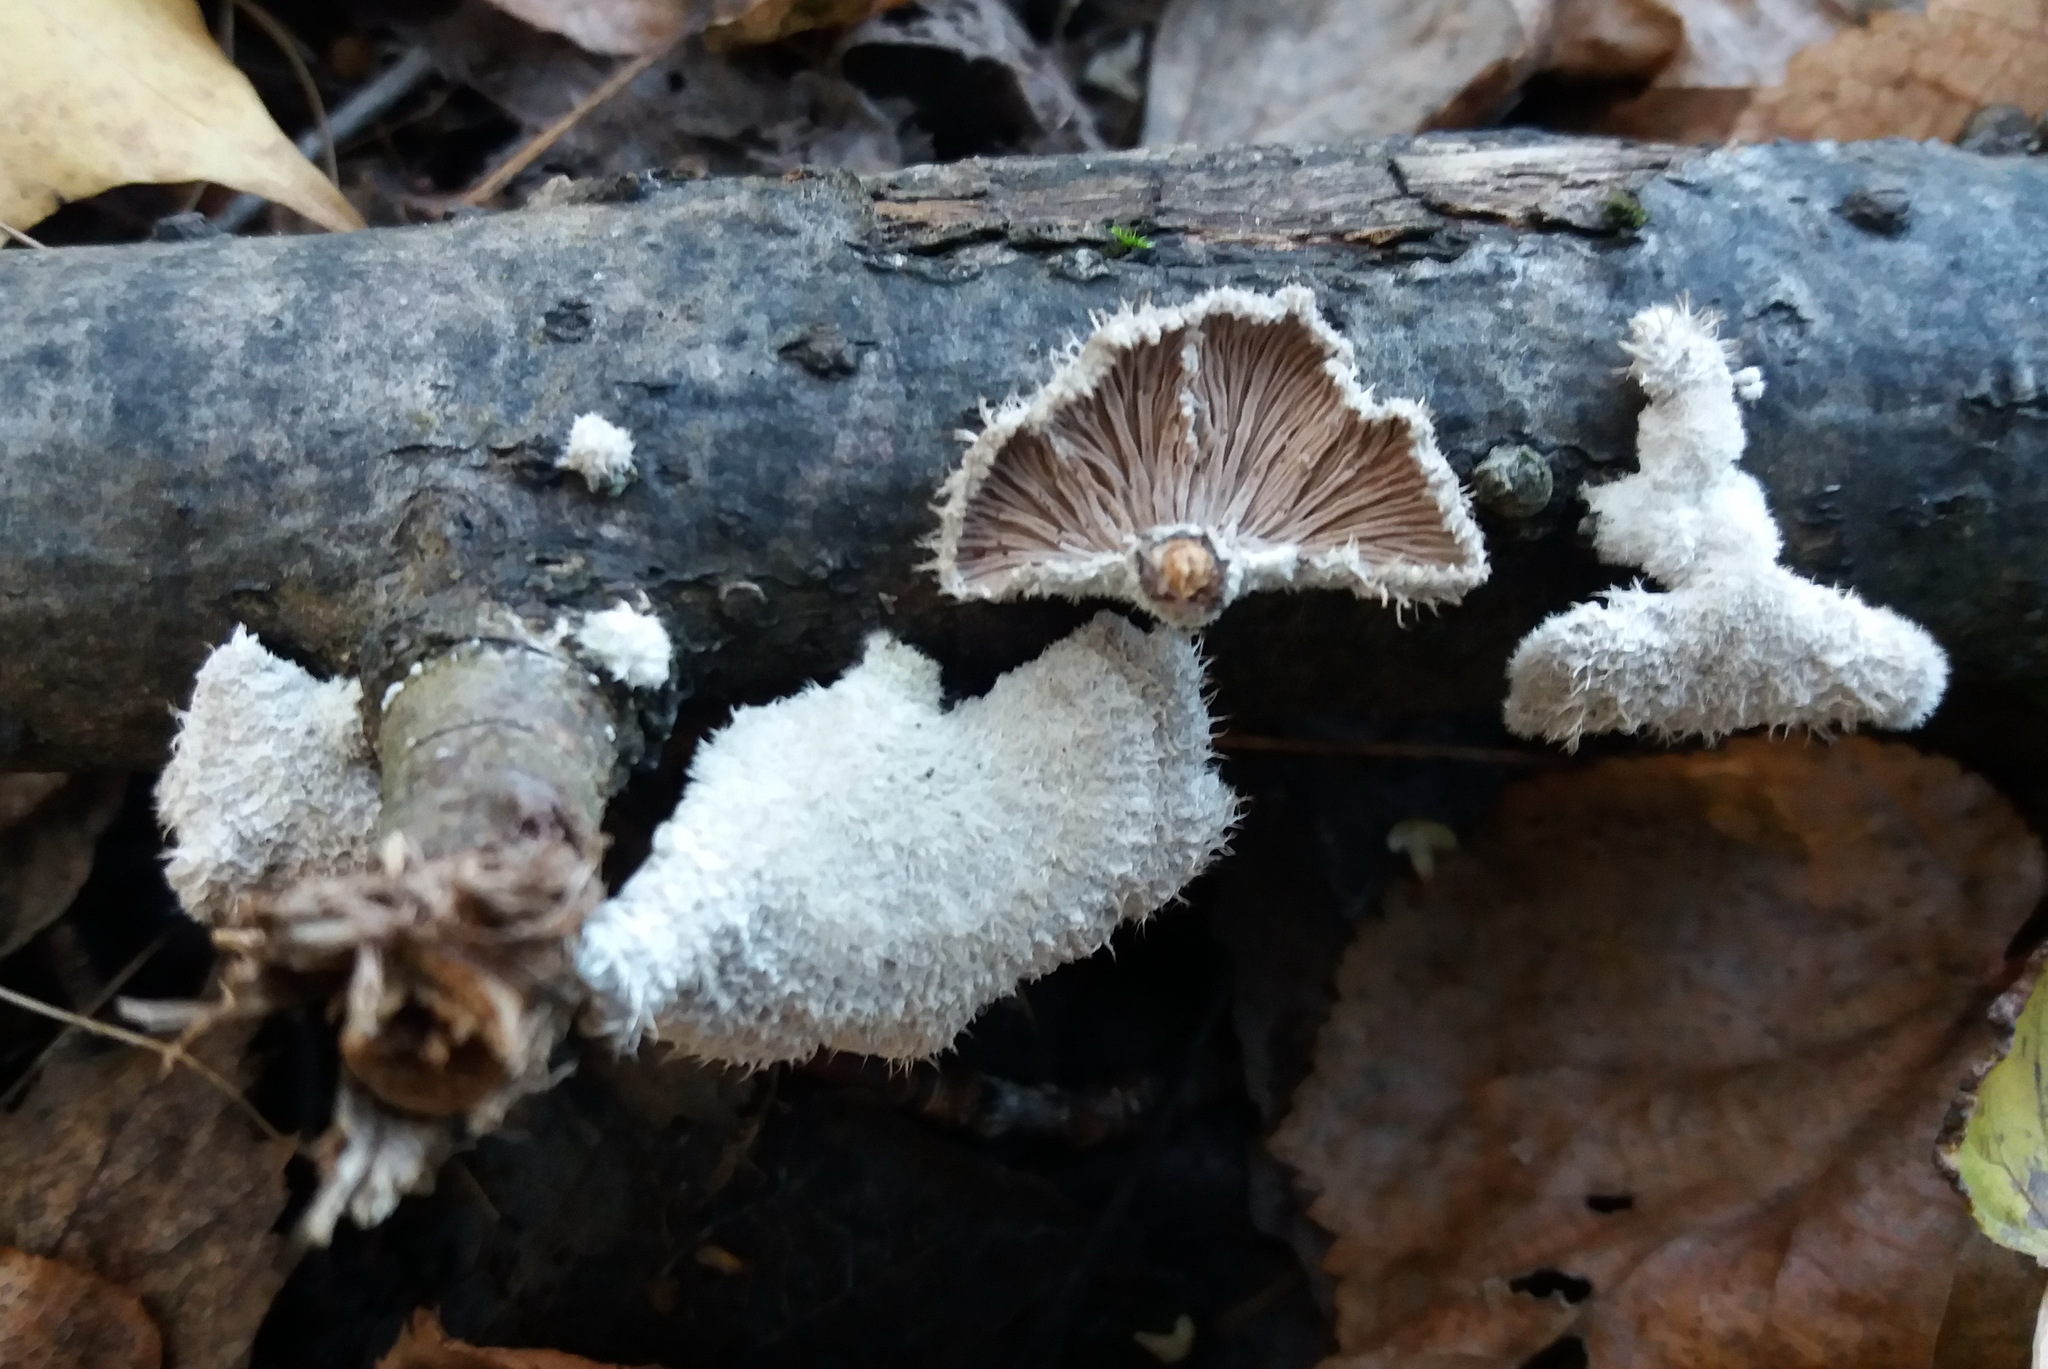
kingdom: Fungi
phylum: Basidiomycota
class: Agaricomycetes
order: Agaricales
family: Schizophyllaceae
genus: Schizophyllum
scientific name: Schizophyllum commune
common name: Common porecrust
